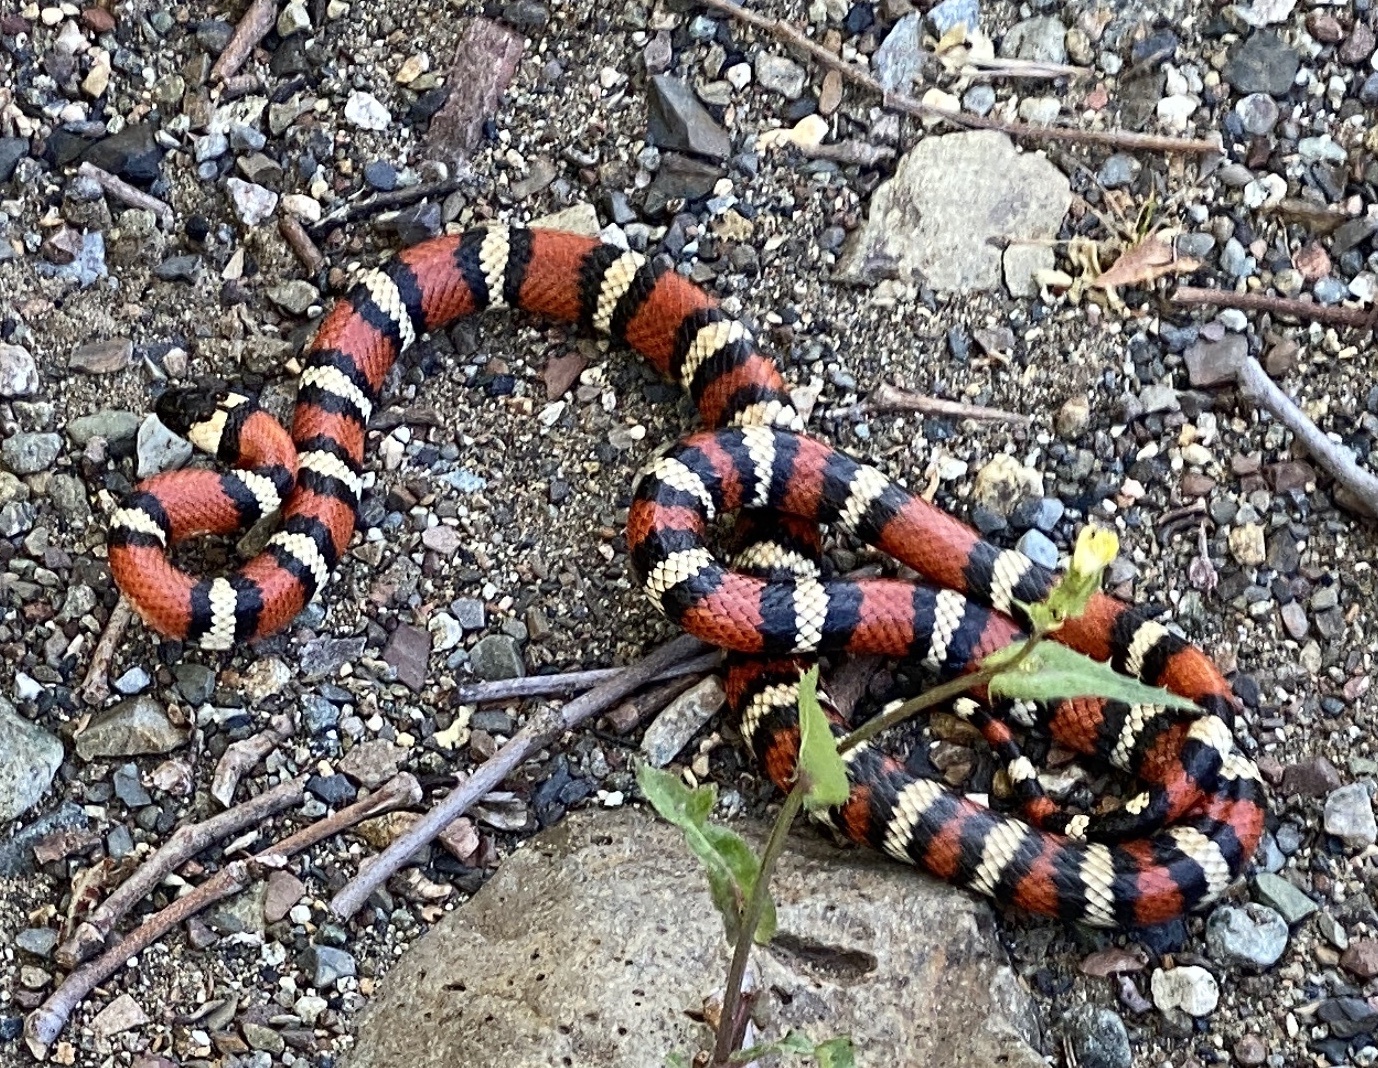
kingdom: Animalia
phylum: Chordata
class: Squamata
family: Colubridae
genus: Lampropeltis
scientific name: Lampropeltis zonata
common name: California mountain kingsnake
